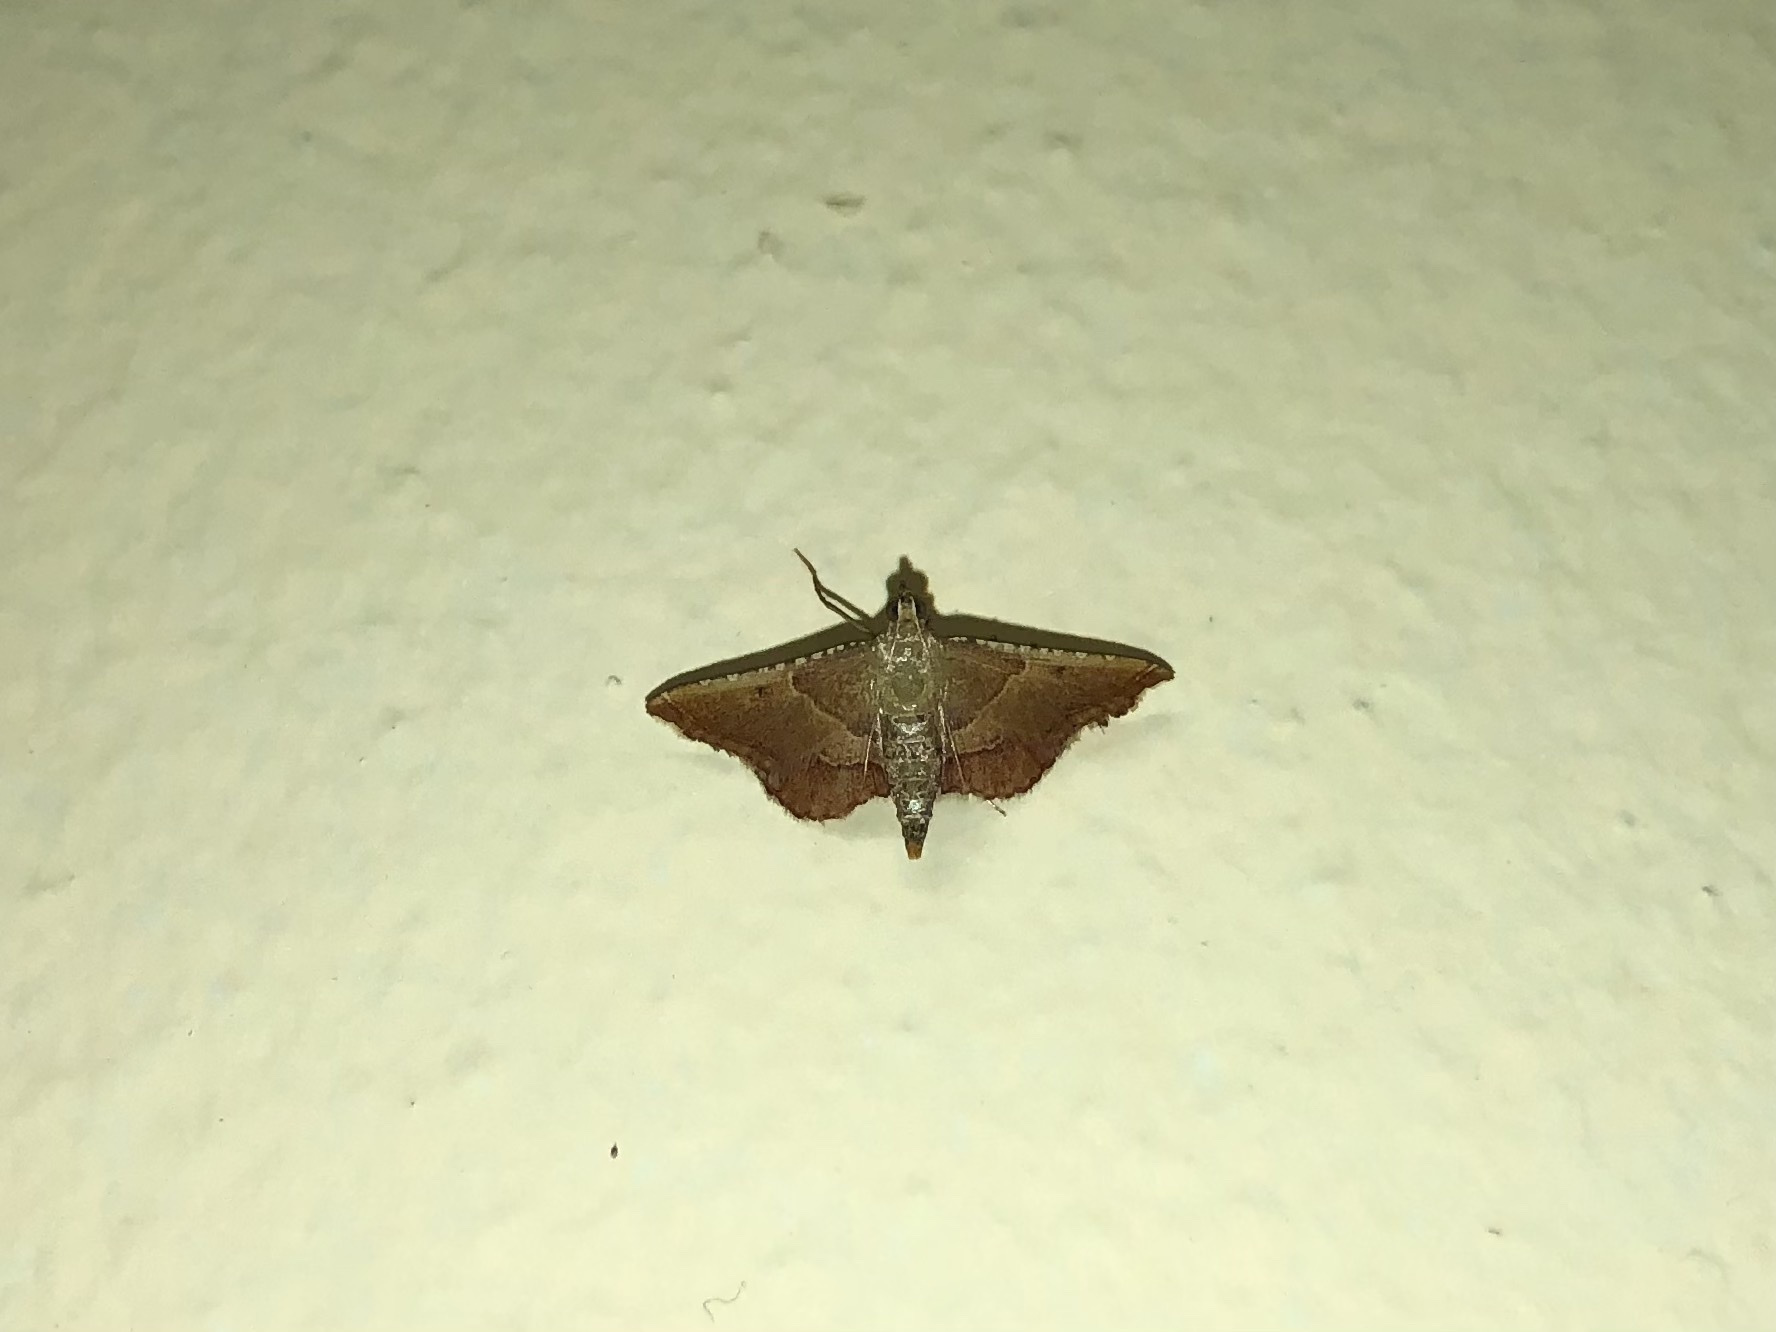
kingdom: Animalia
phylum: Arthropoda
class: Insecta
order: Lepidoptera
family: Pyralidae
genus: Endotricha
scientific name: Endotricha flammealis
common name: Rosy tabby
